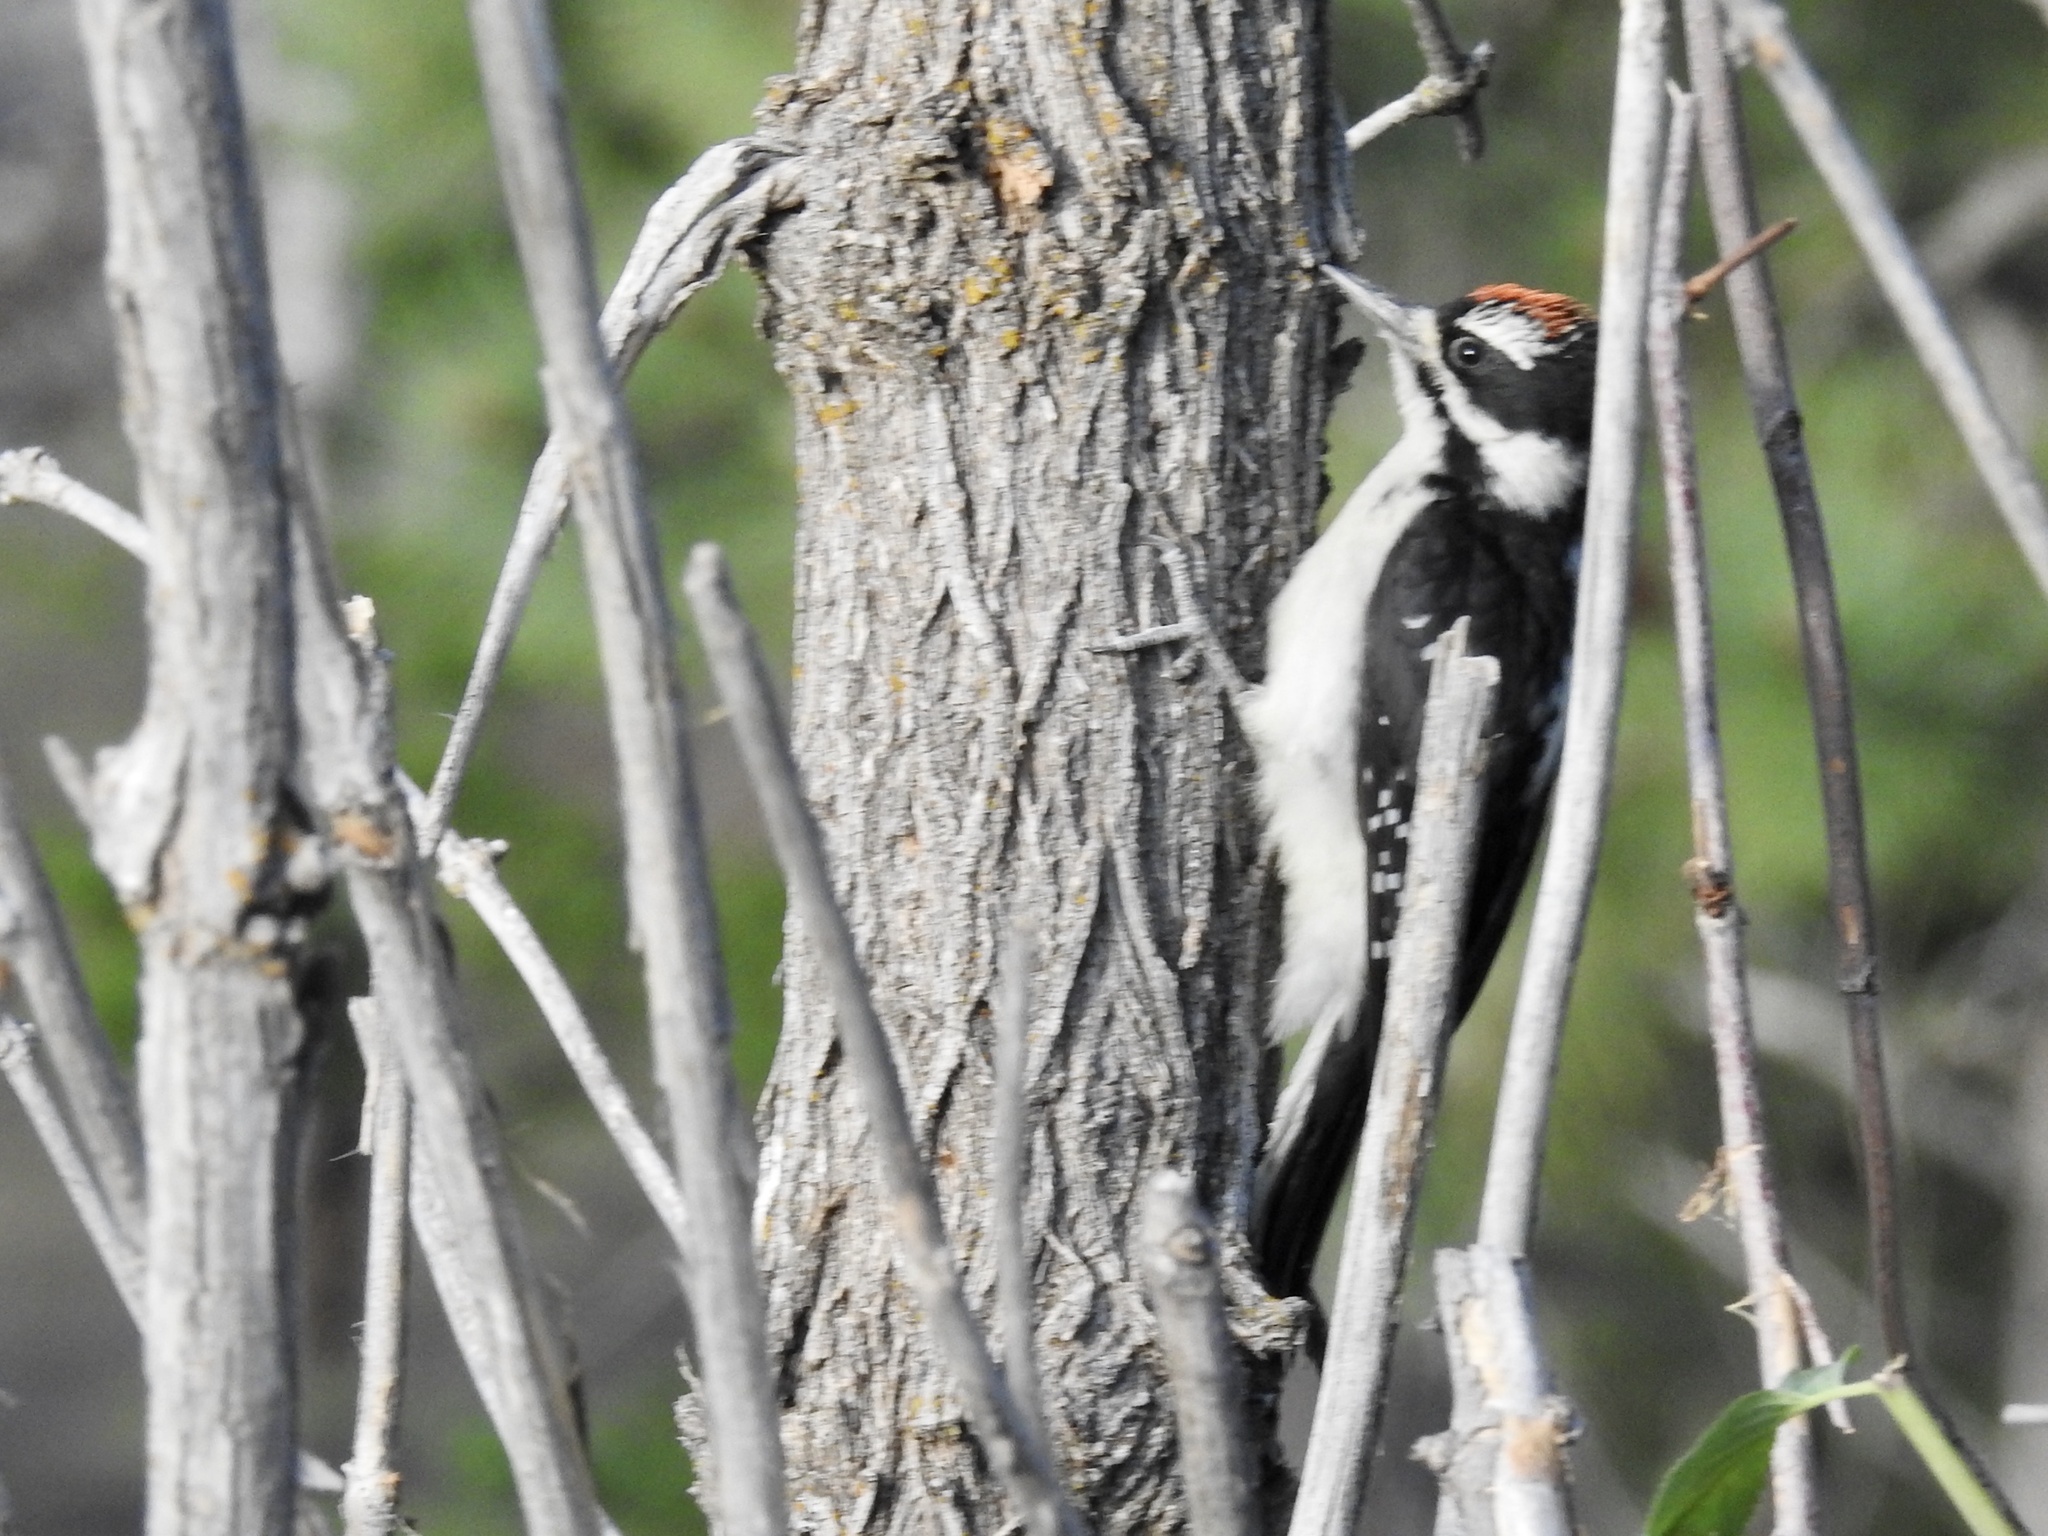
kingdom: Animalia
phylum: Chordata
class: Aves
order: Piciformes
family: Picidae
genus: Leuconotopicus
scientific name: Leuconotopicus villosus
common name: Hairy woodpecker
